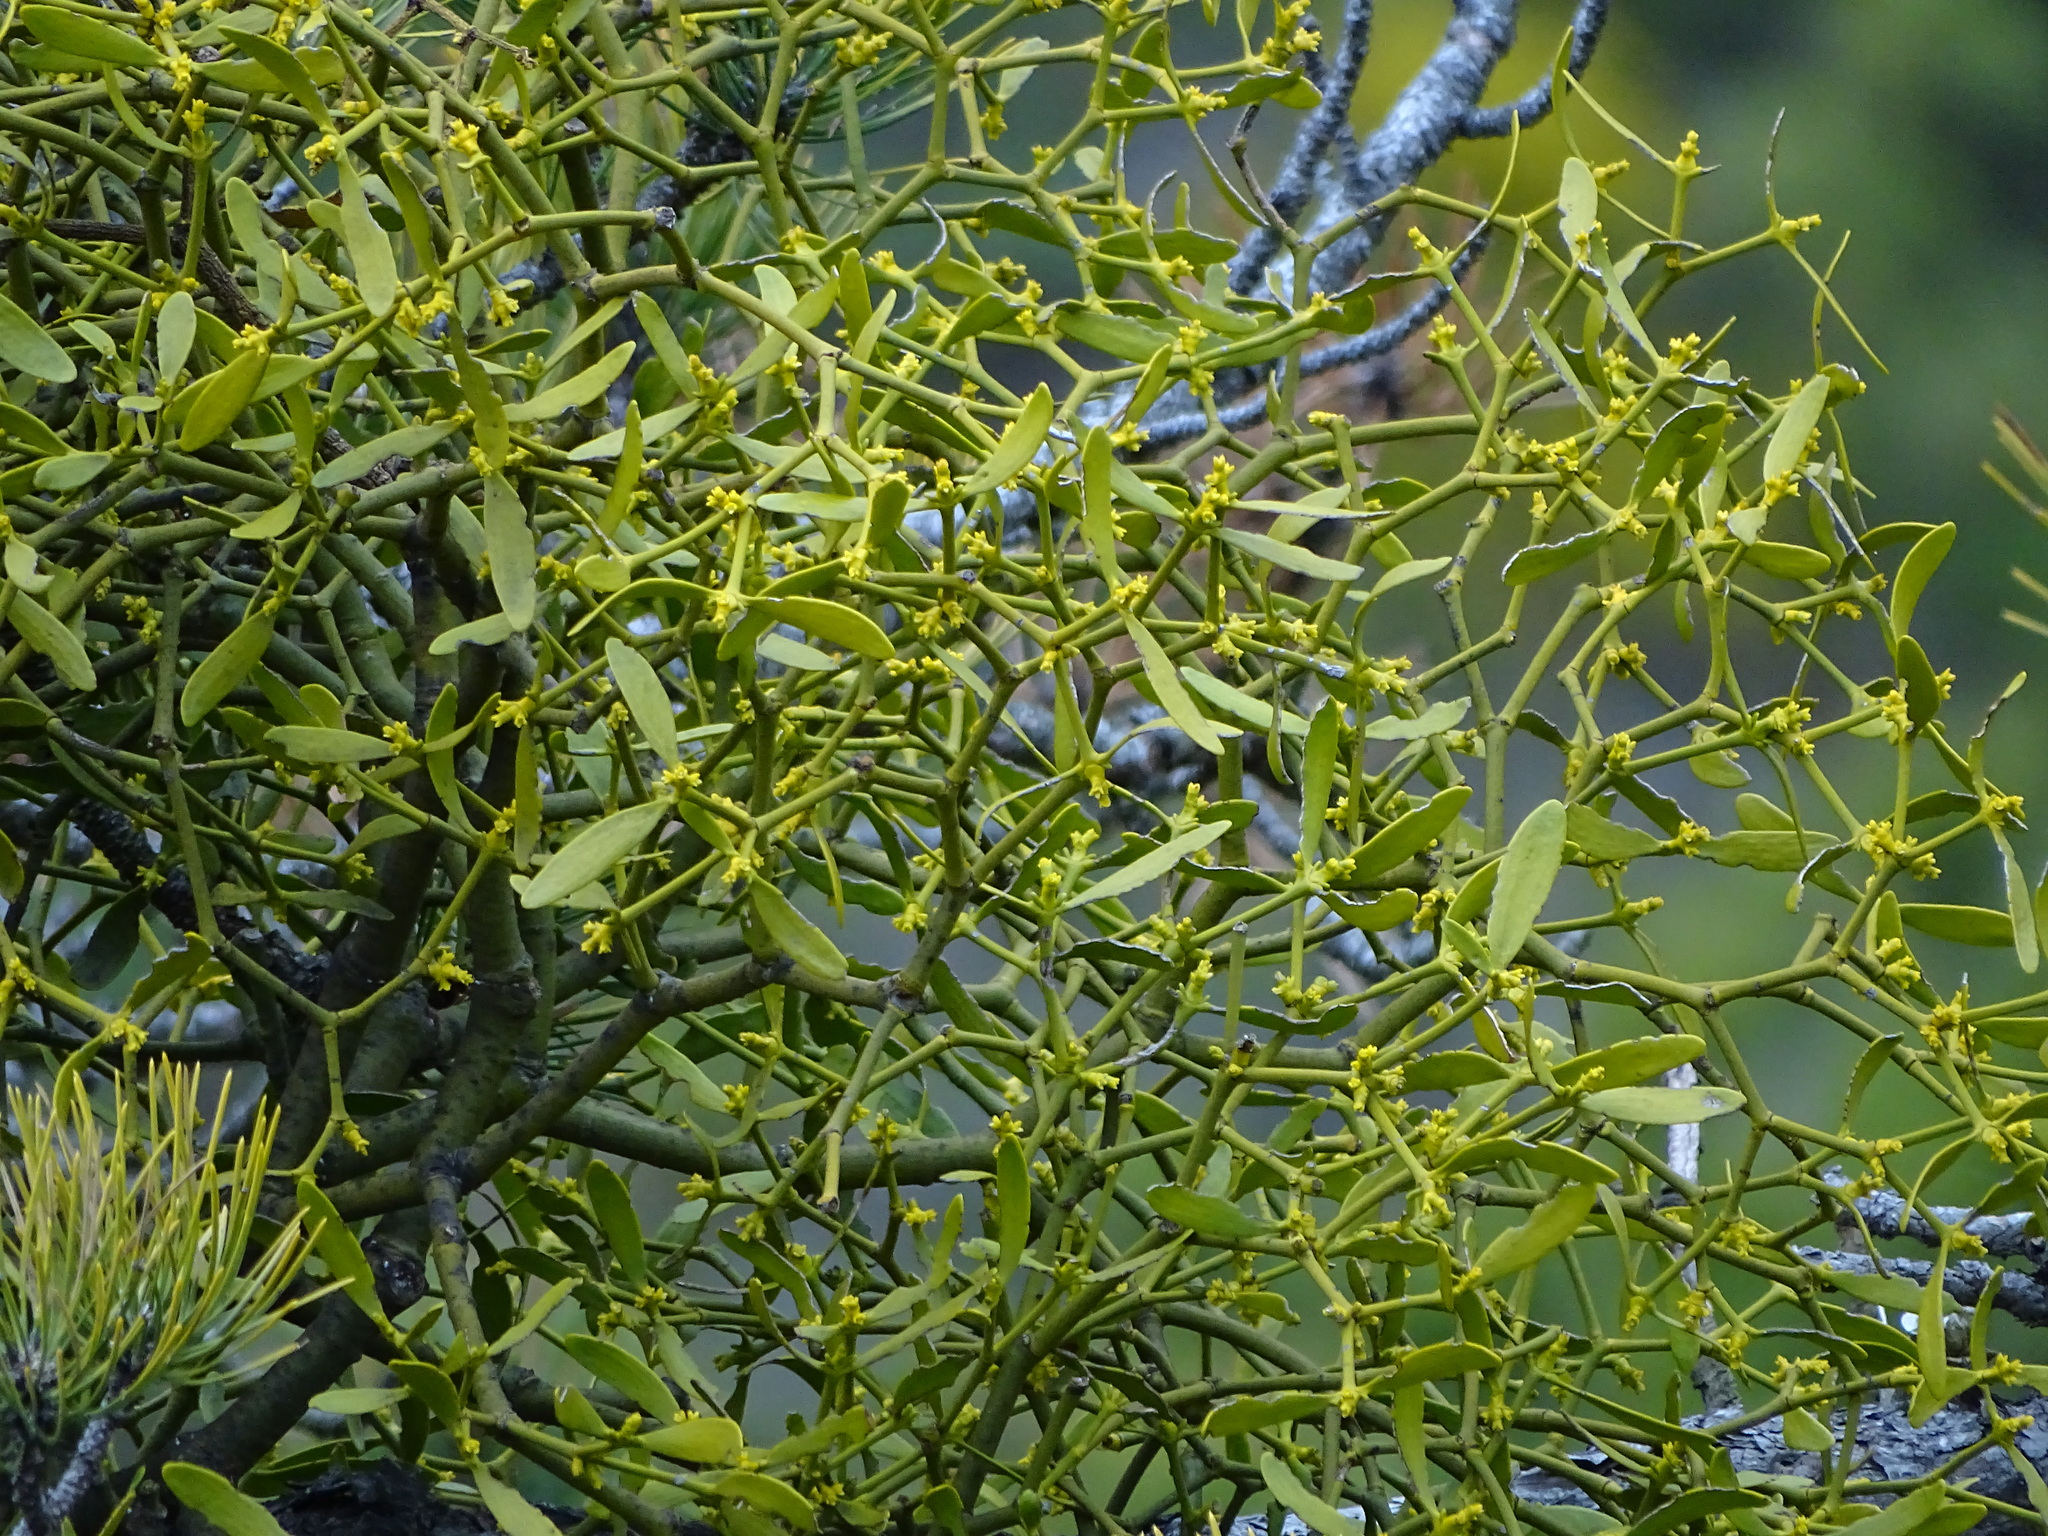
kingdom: Plantae
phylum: Tracheophyta
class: Magnoliopsida
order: Santalales
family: Viscaceae
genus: Viscum
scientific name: Viscum laxum
